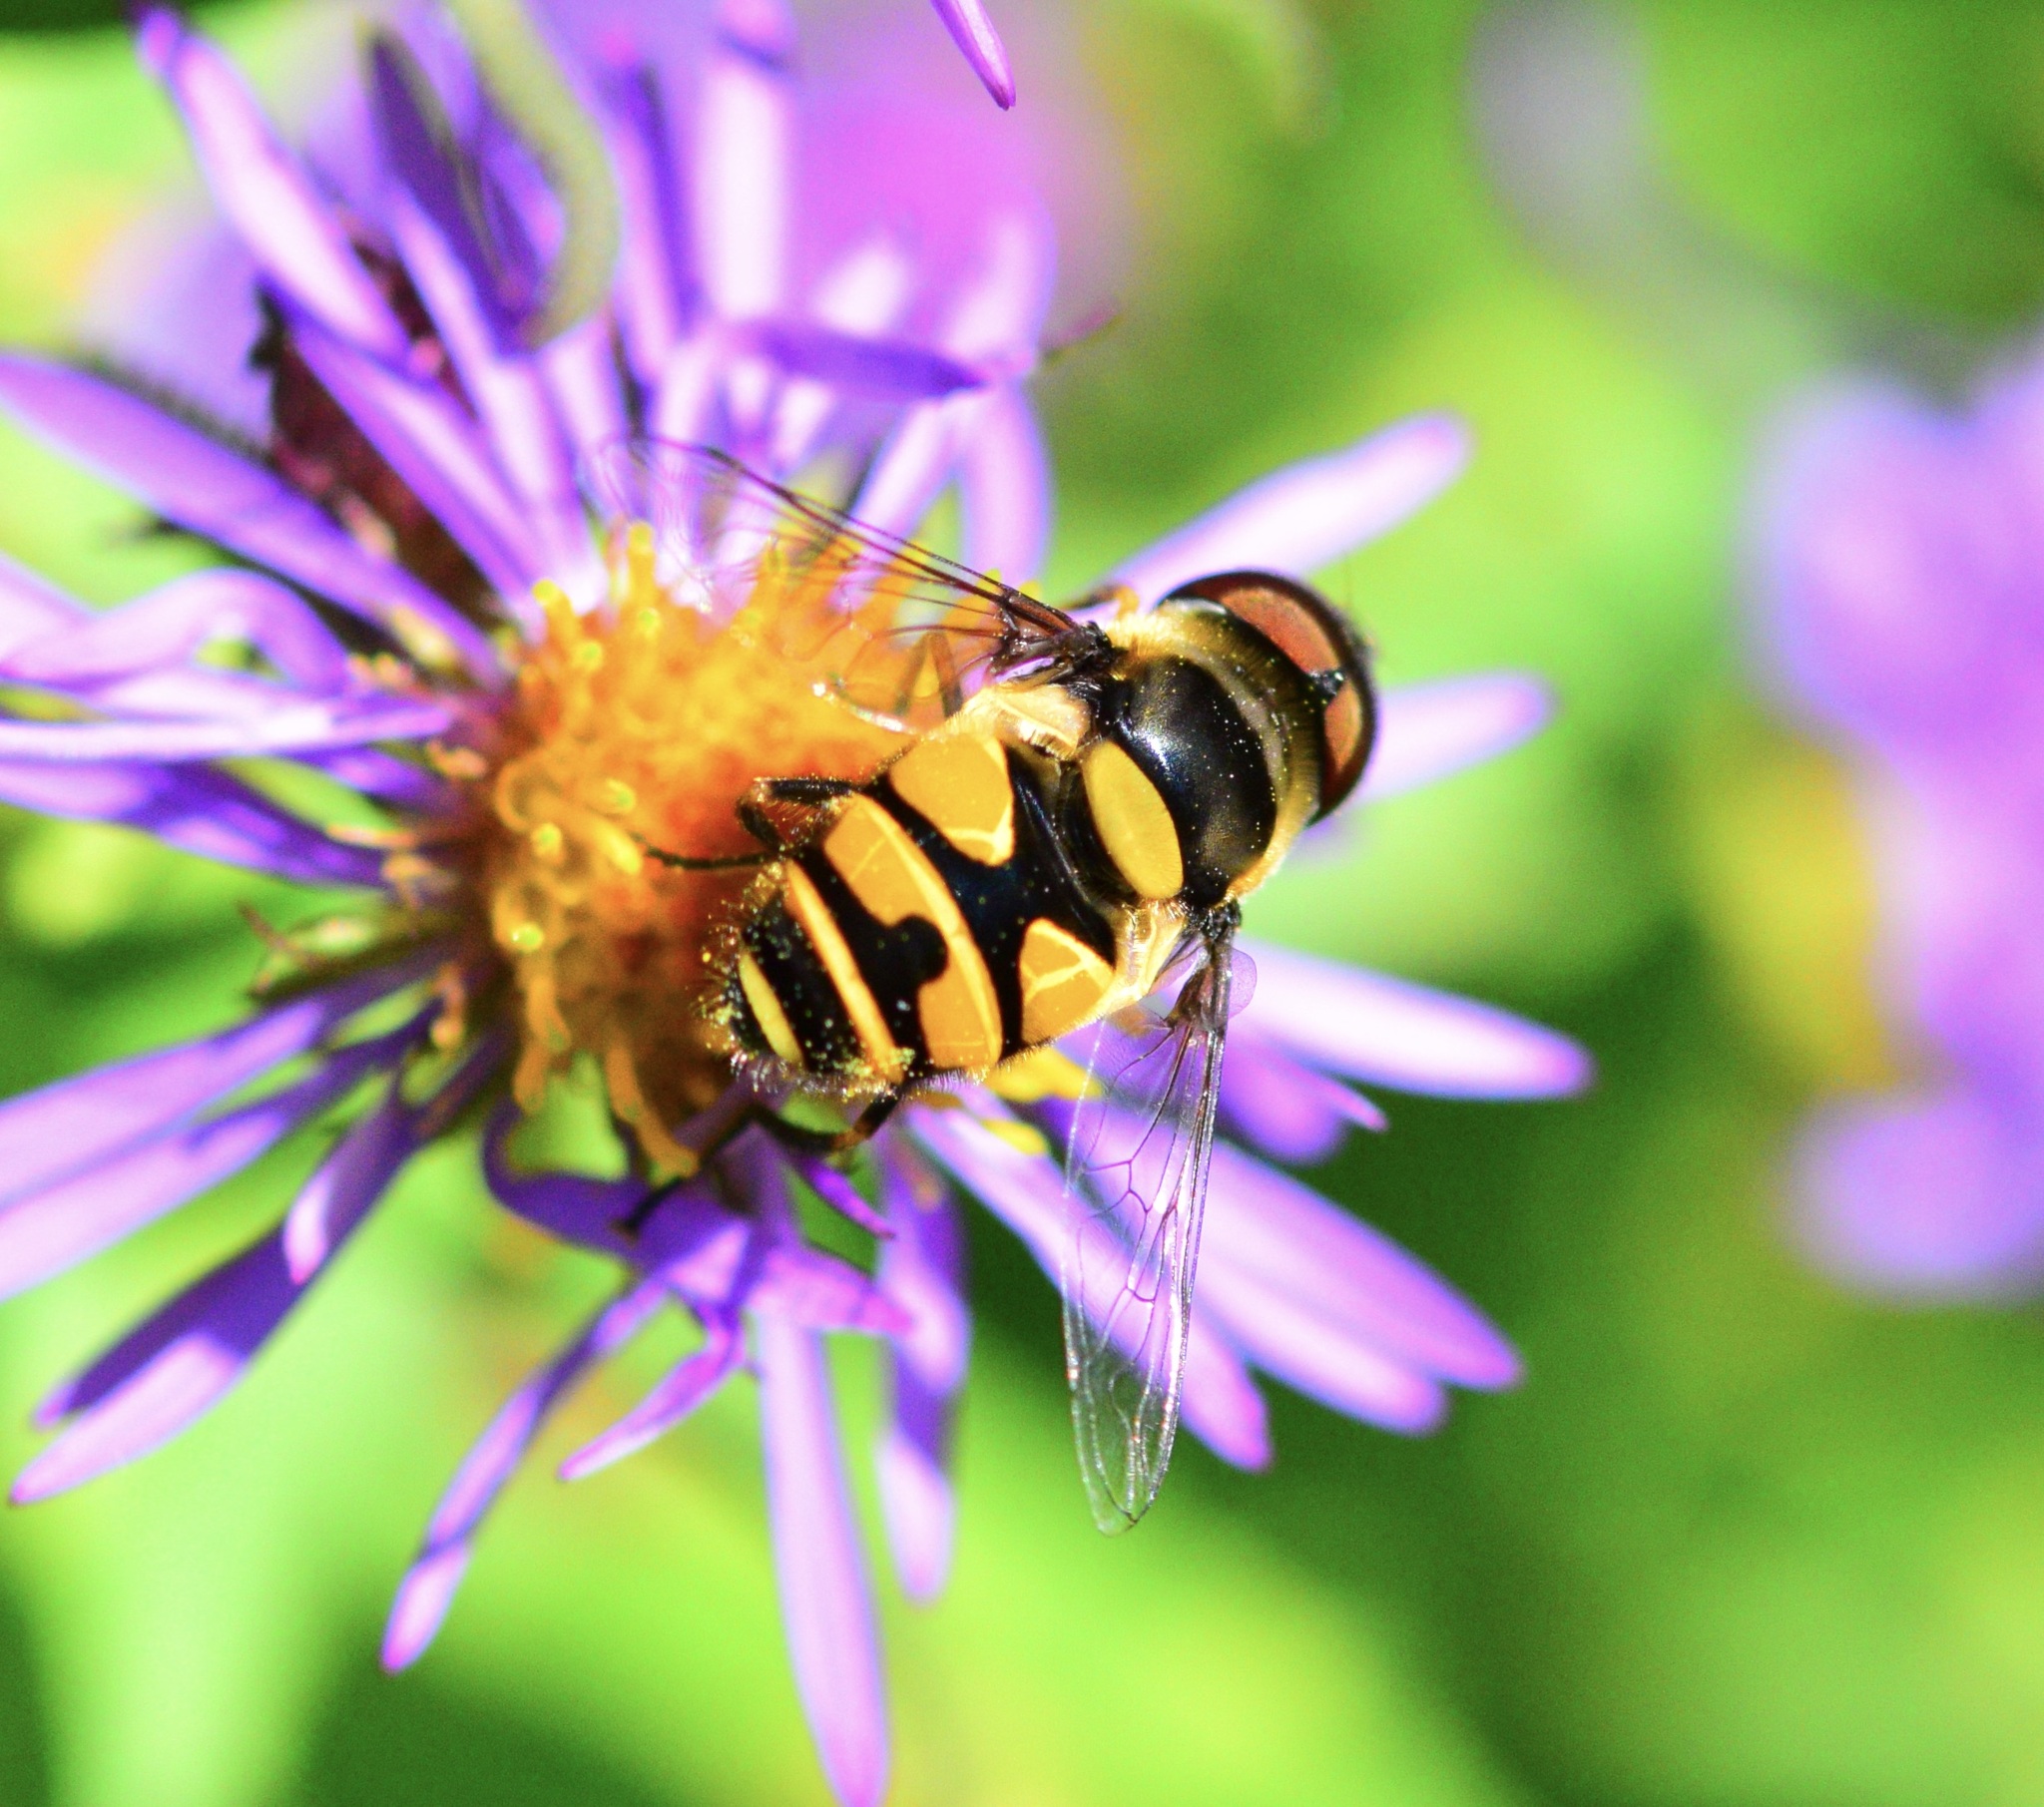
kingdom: Animalia
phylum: Arthropoda
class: Insecta
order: Diptera
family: Syrphidae
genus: Eristalis
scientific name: Eristalis transversa
